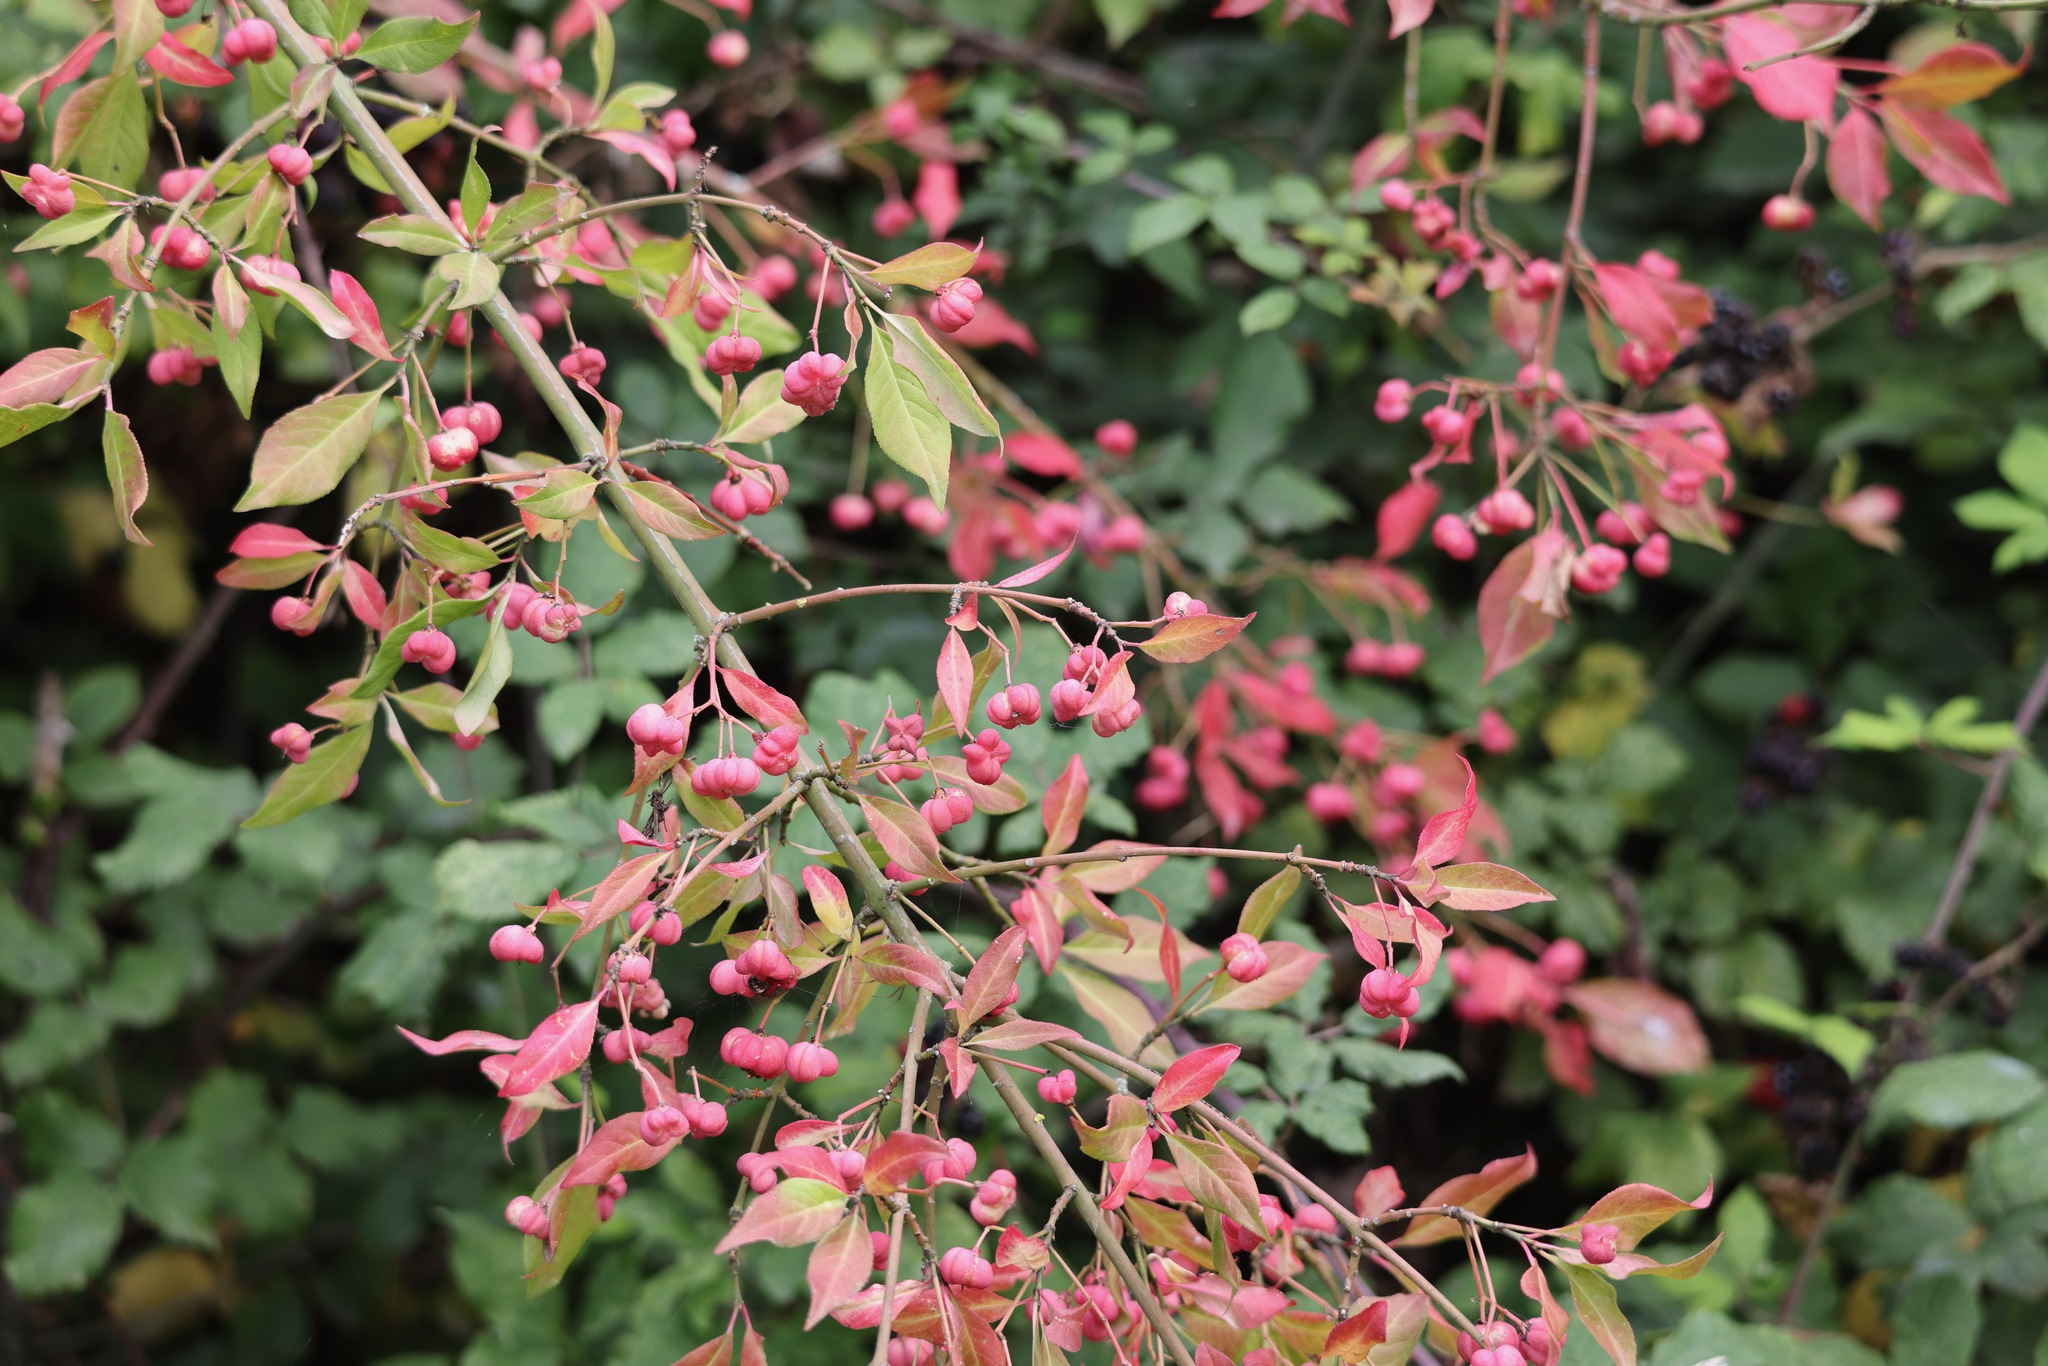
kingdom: Plantae
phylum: Tracheophyta
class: Magnoliopsida
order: Celastrales
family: Celastraceae
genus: Euonymus
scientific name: Euonymus europaeus
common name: Spindle
